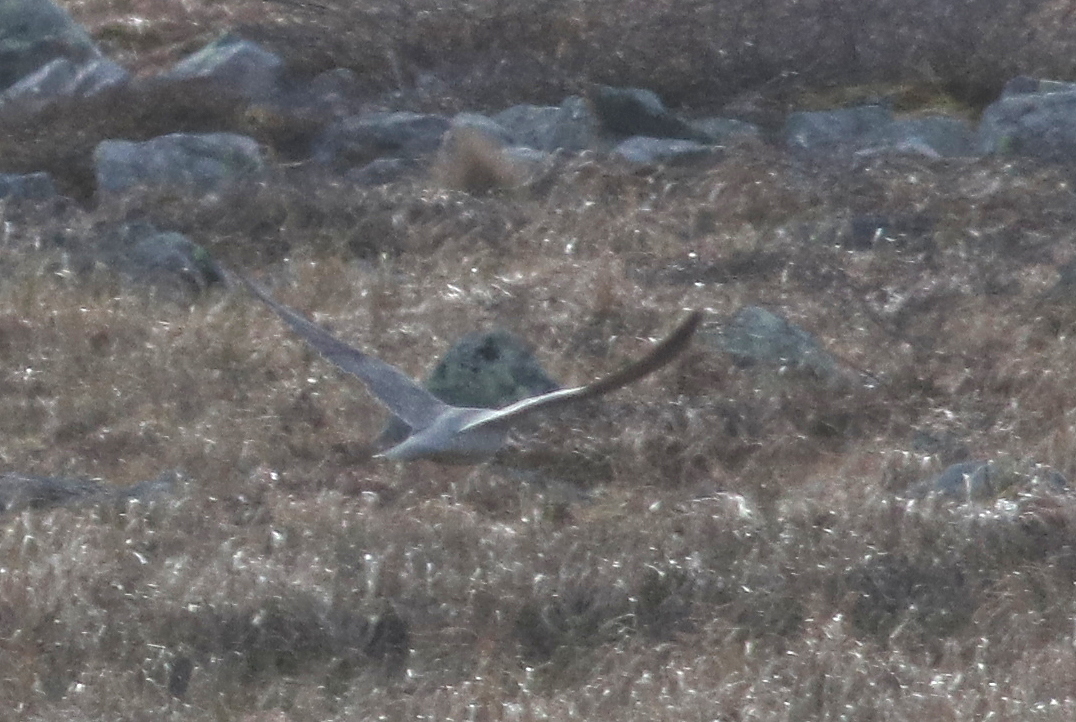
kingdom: Animalia
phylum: Chordata
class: Aves
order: Falconiformes
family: Falconidae
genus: Falco
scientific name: Falco peregrinus
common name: Peregrine falcon
